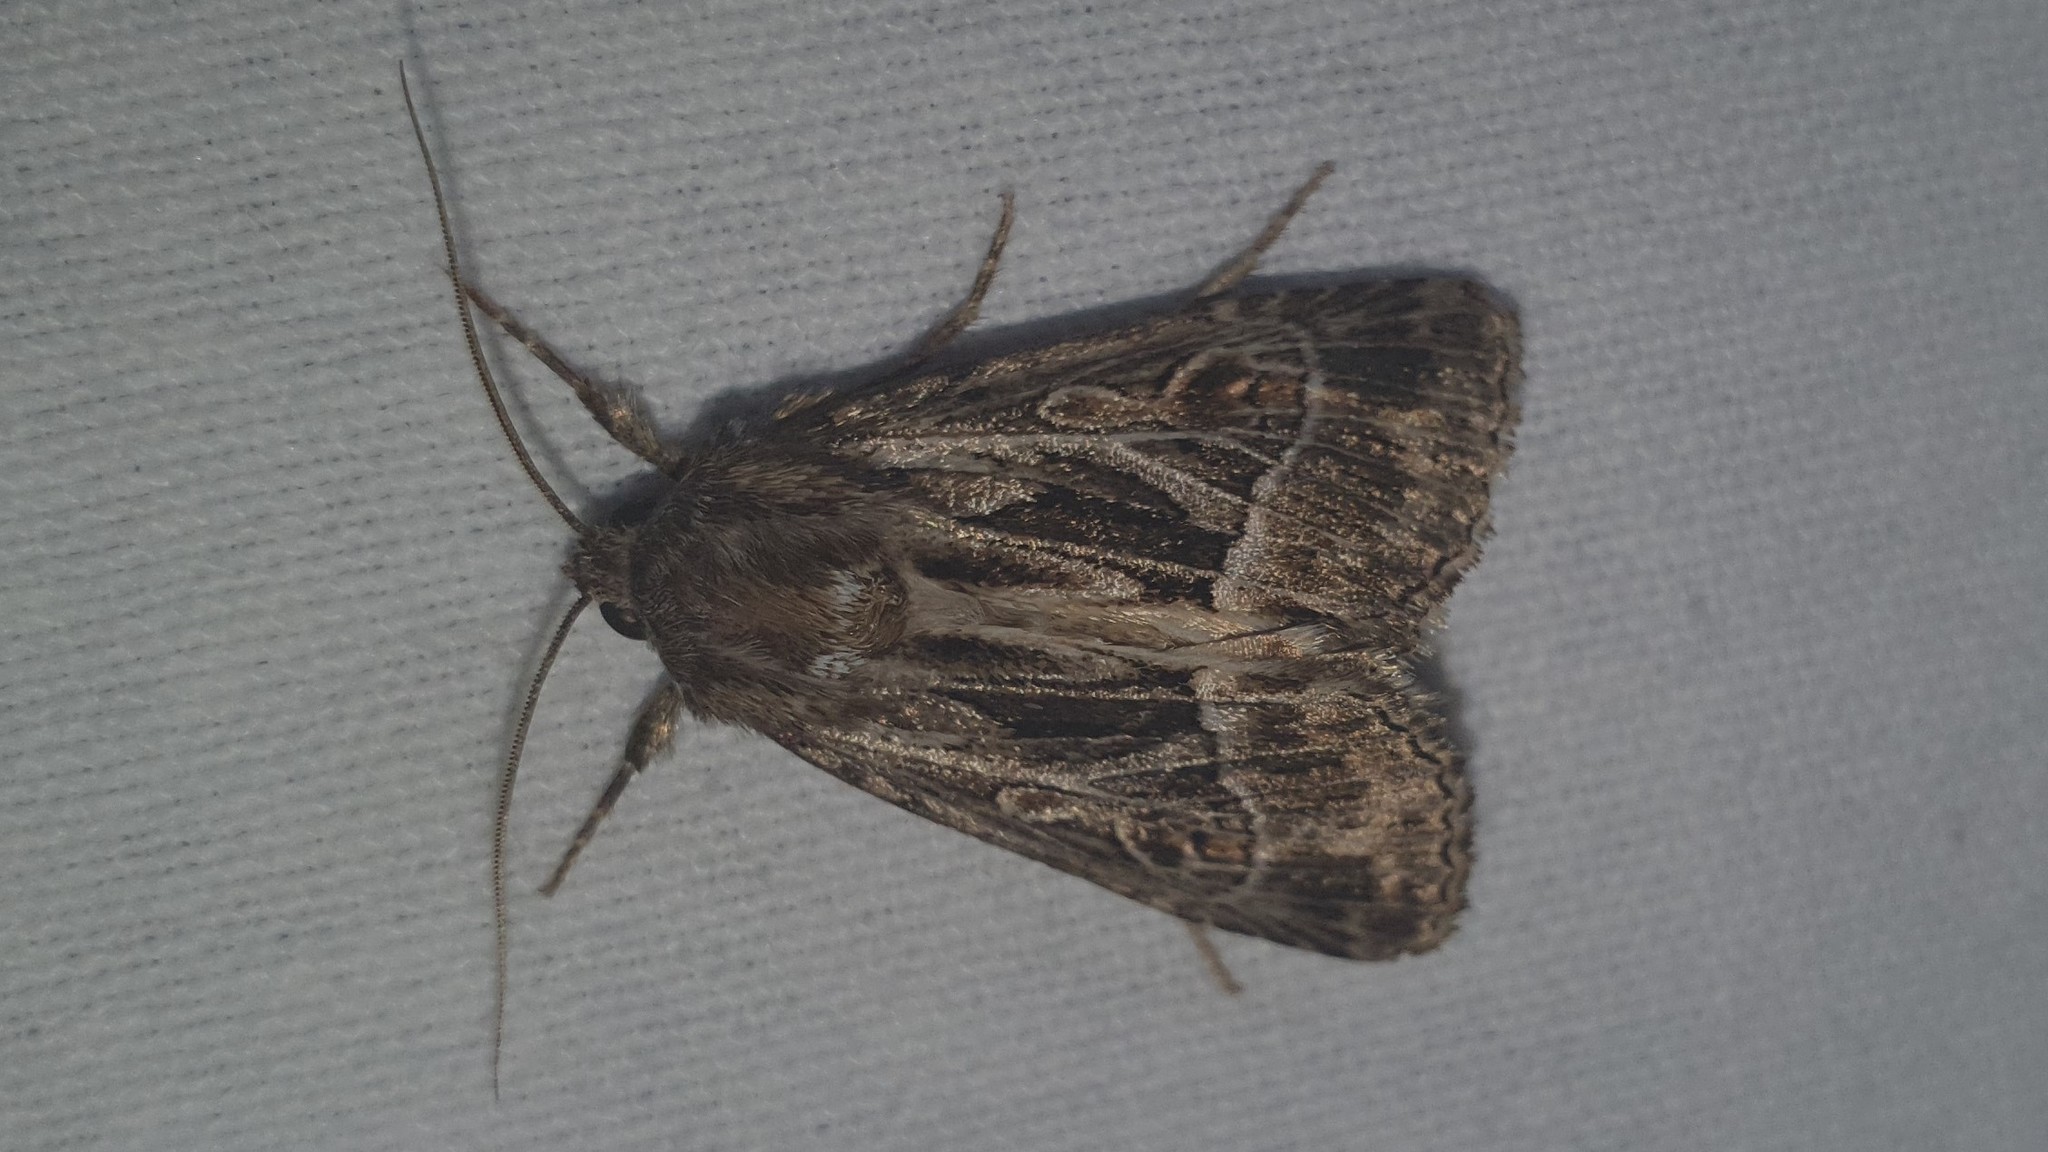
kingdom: Animalia
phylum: Arthropoda
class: Insecta
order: Lepidoptera
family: Noctuidae
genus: Thalpophila
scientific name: Thalpophila vitalba
